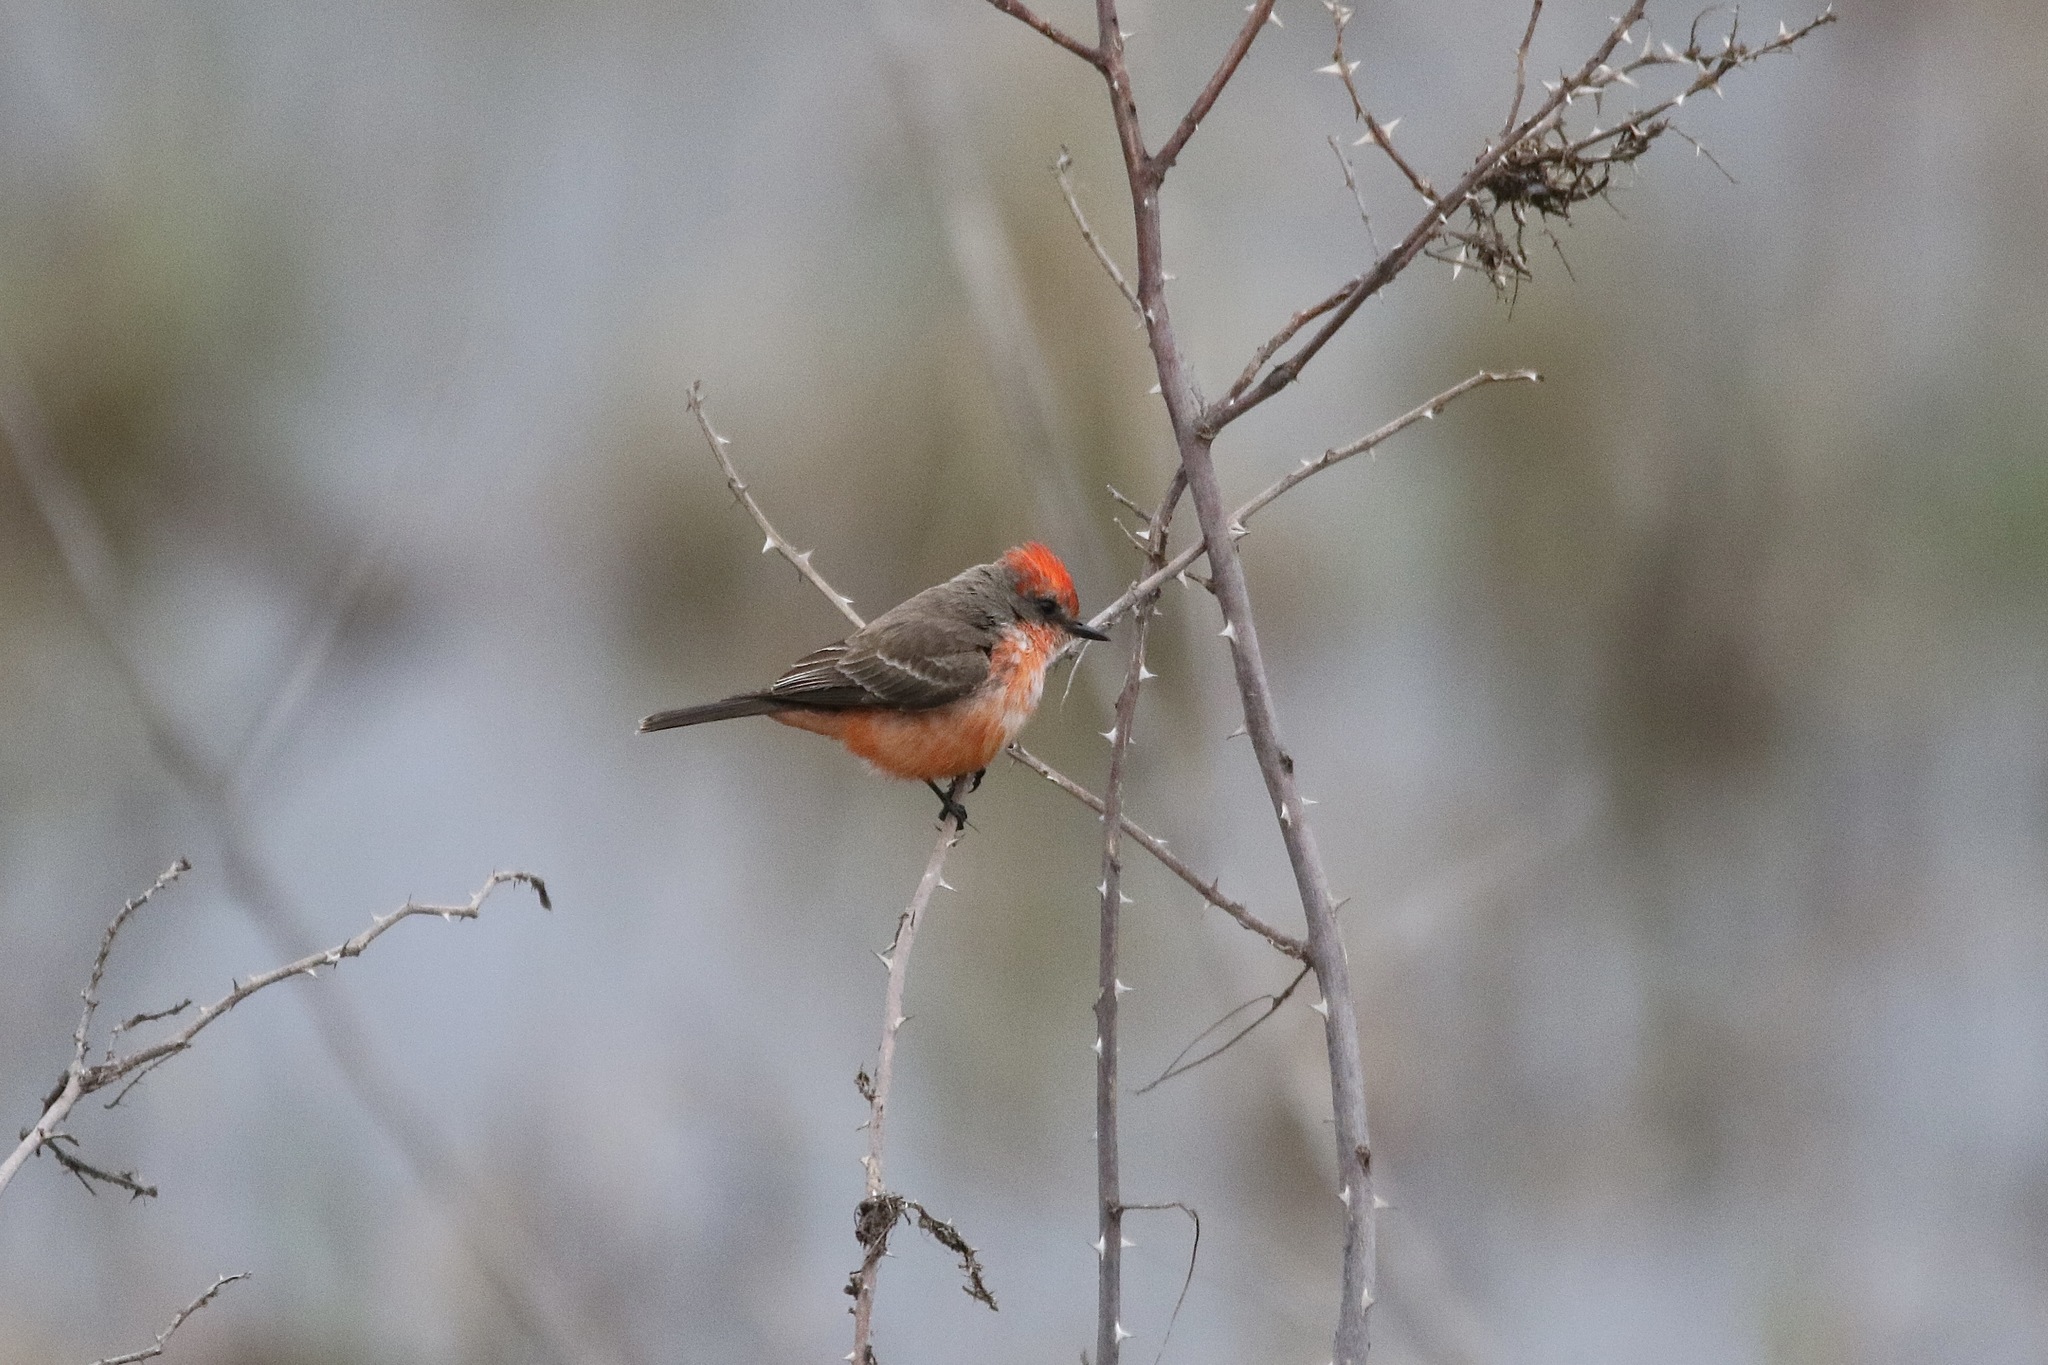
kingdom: Animalia
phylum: Chordata
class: Aves
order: Passeriformes
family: Tyrannidae
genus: Pyrocephalus
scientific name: Pyrocephalus rubinus
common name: Vermilion flycatcher
